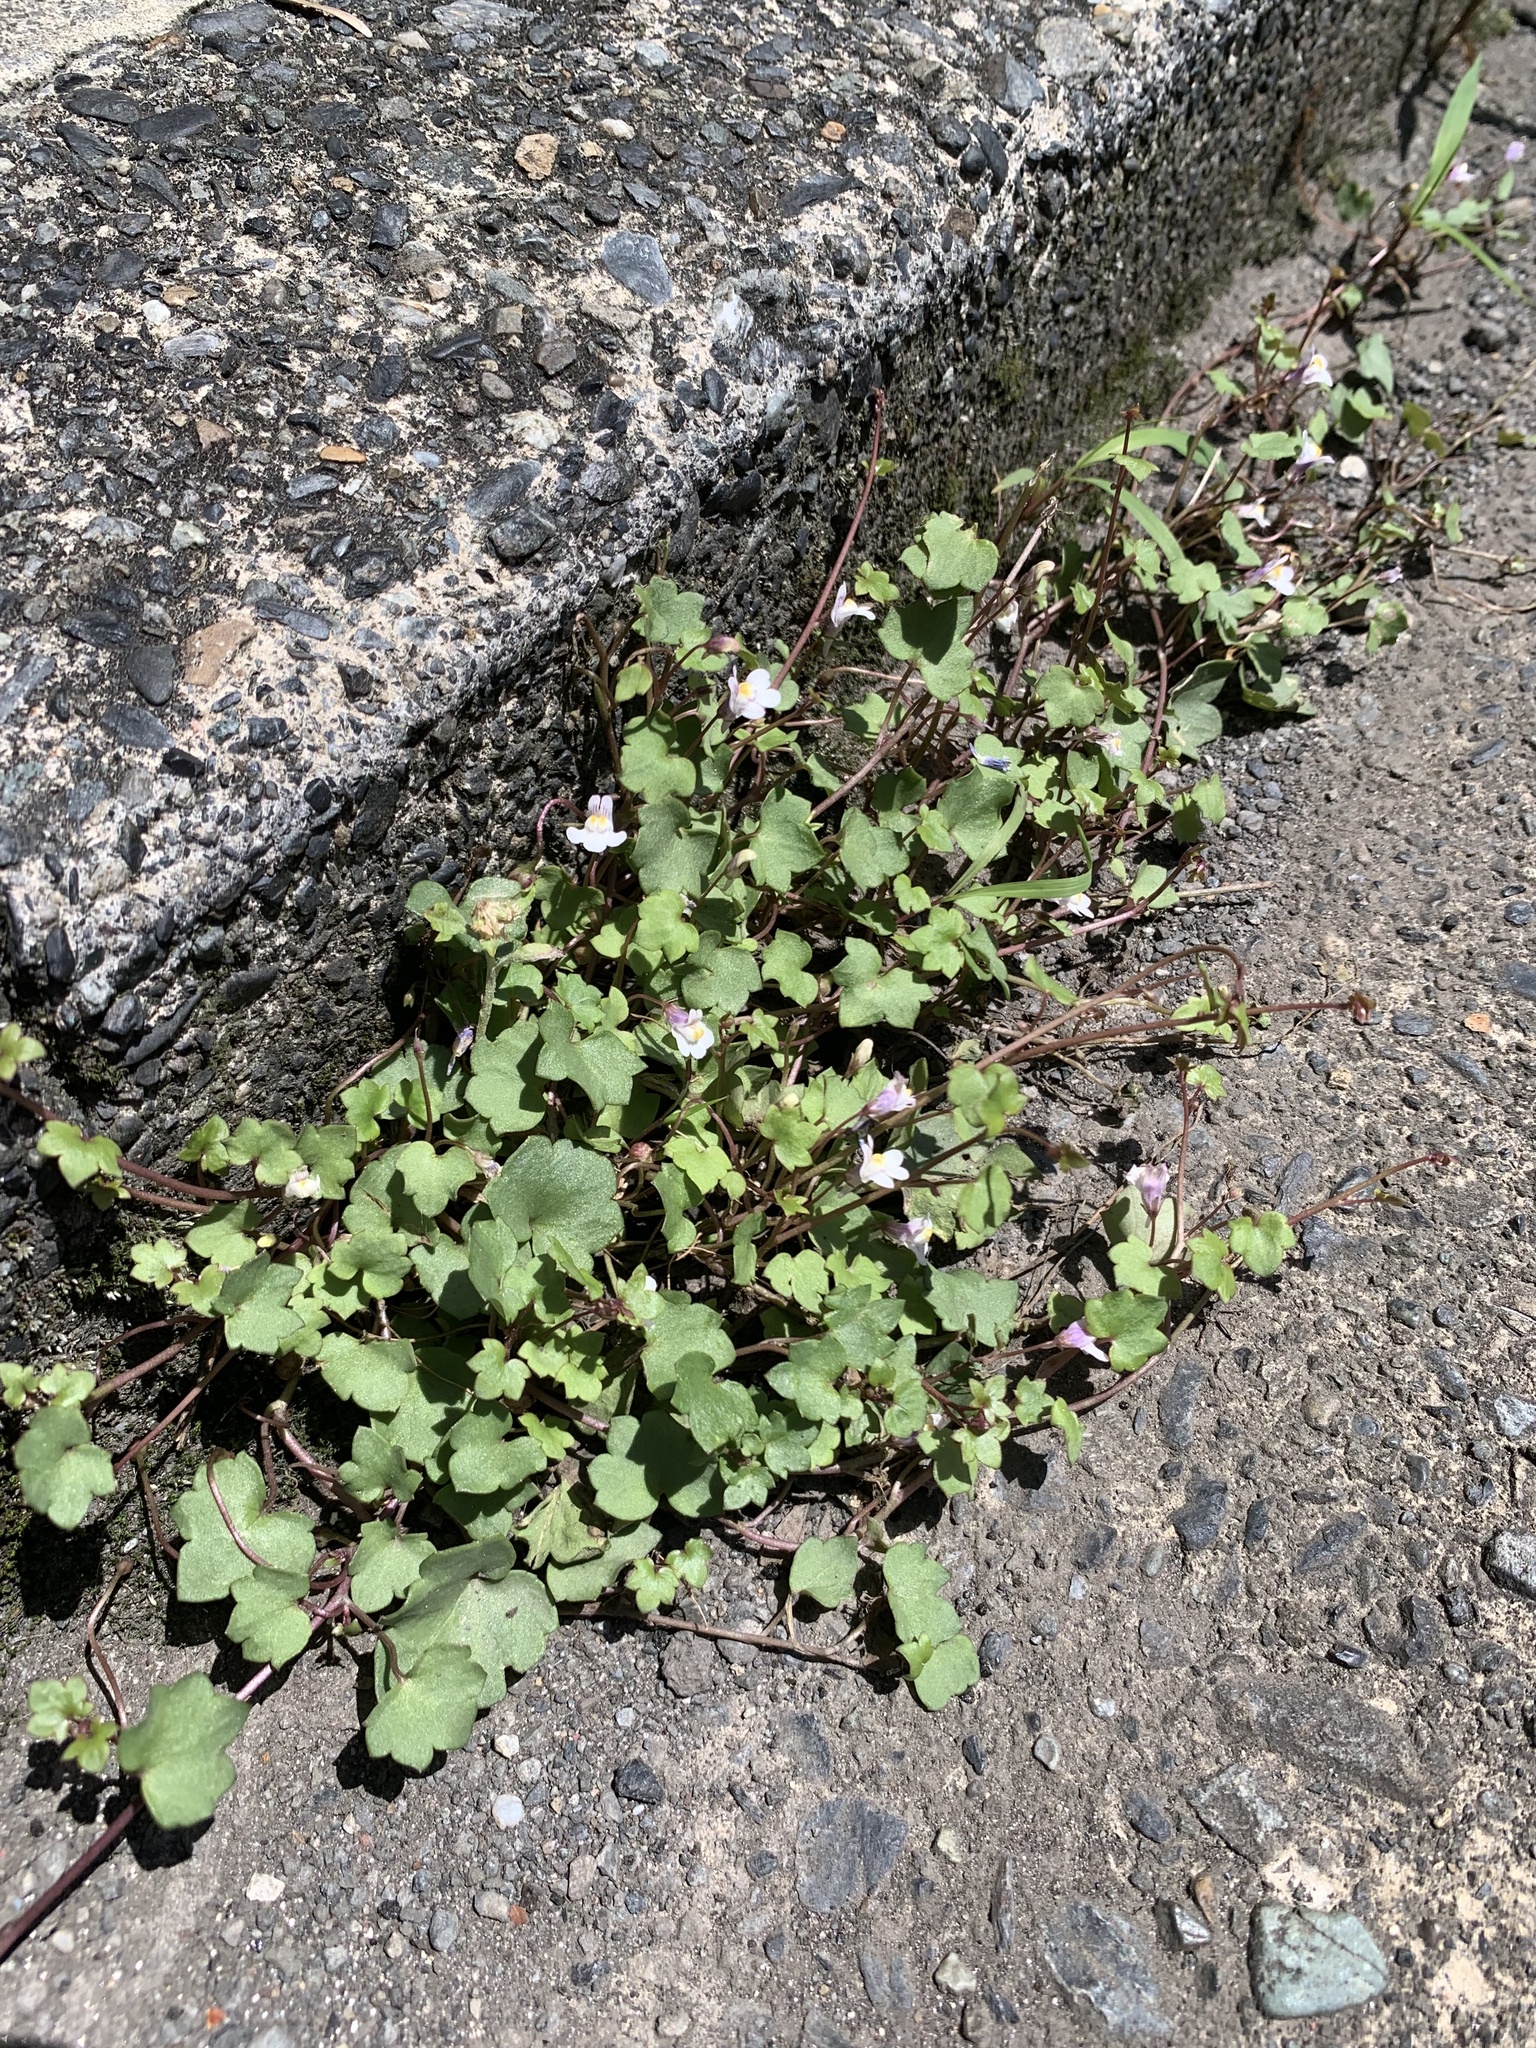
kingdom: Plantae
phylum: Tracheophyta
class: Magnoliopsida
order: Lamiales
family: Plantaginaceae
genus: Cymbalaria
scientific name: Cymbalaria muralis
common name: Ivy-leaved toadflax
